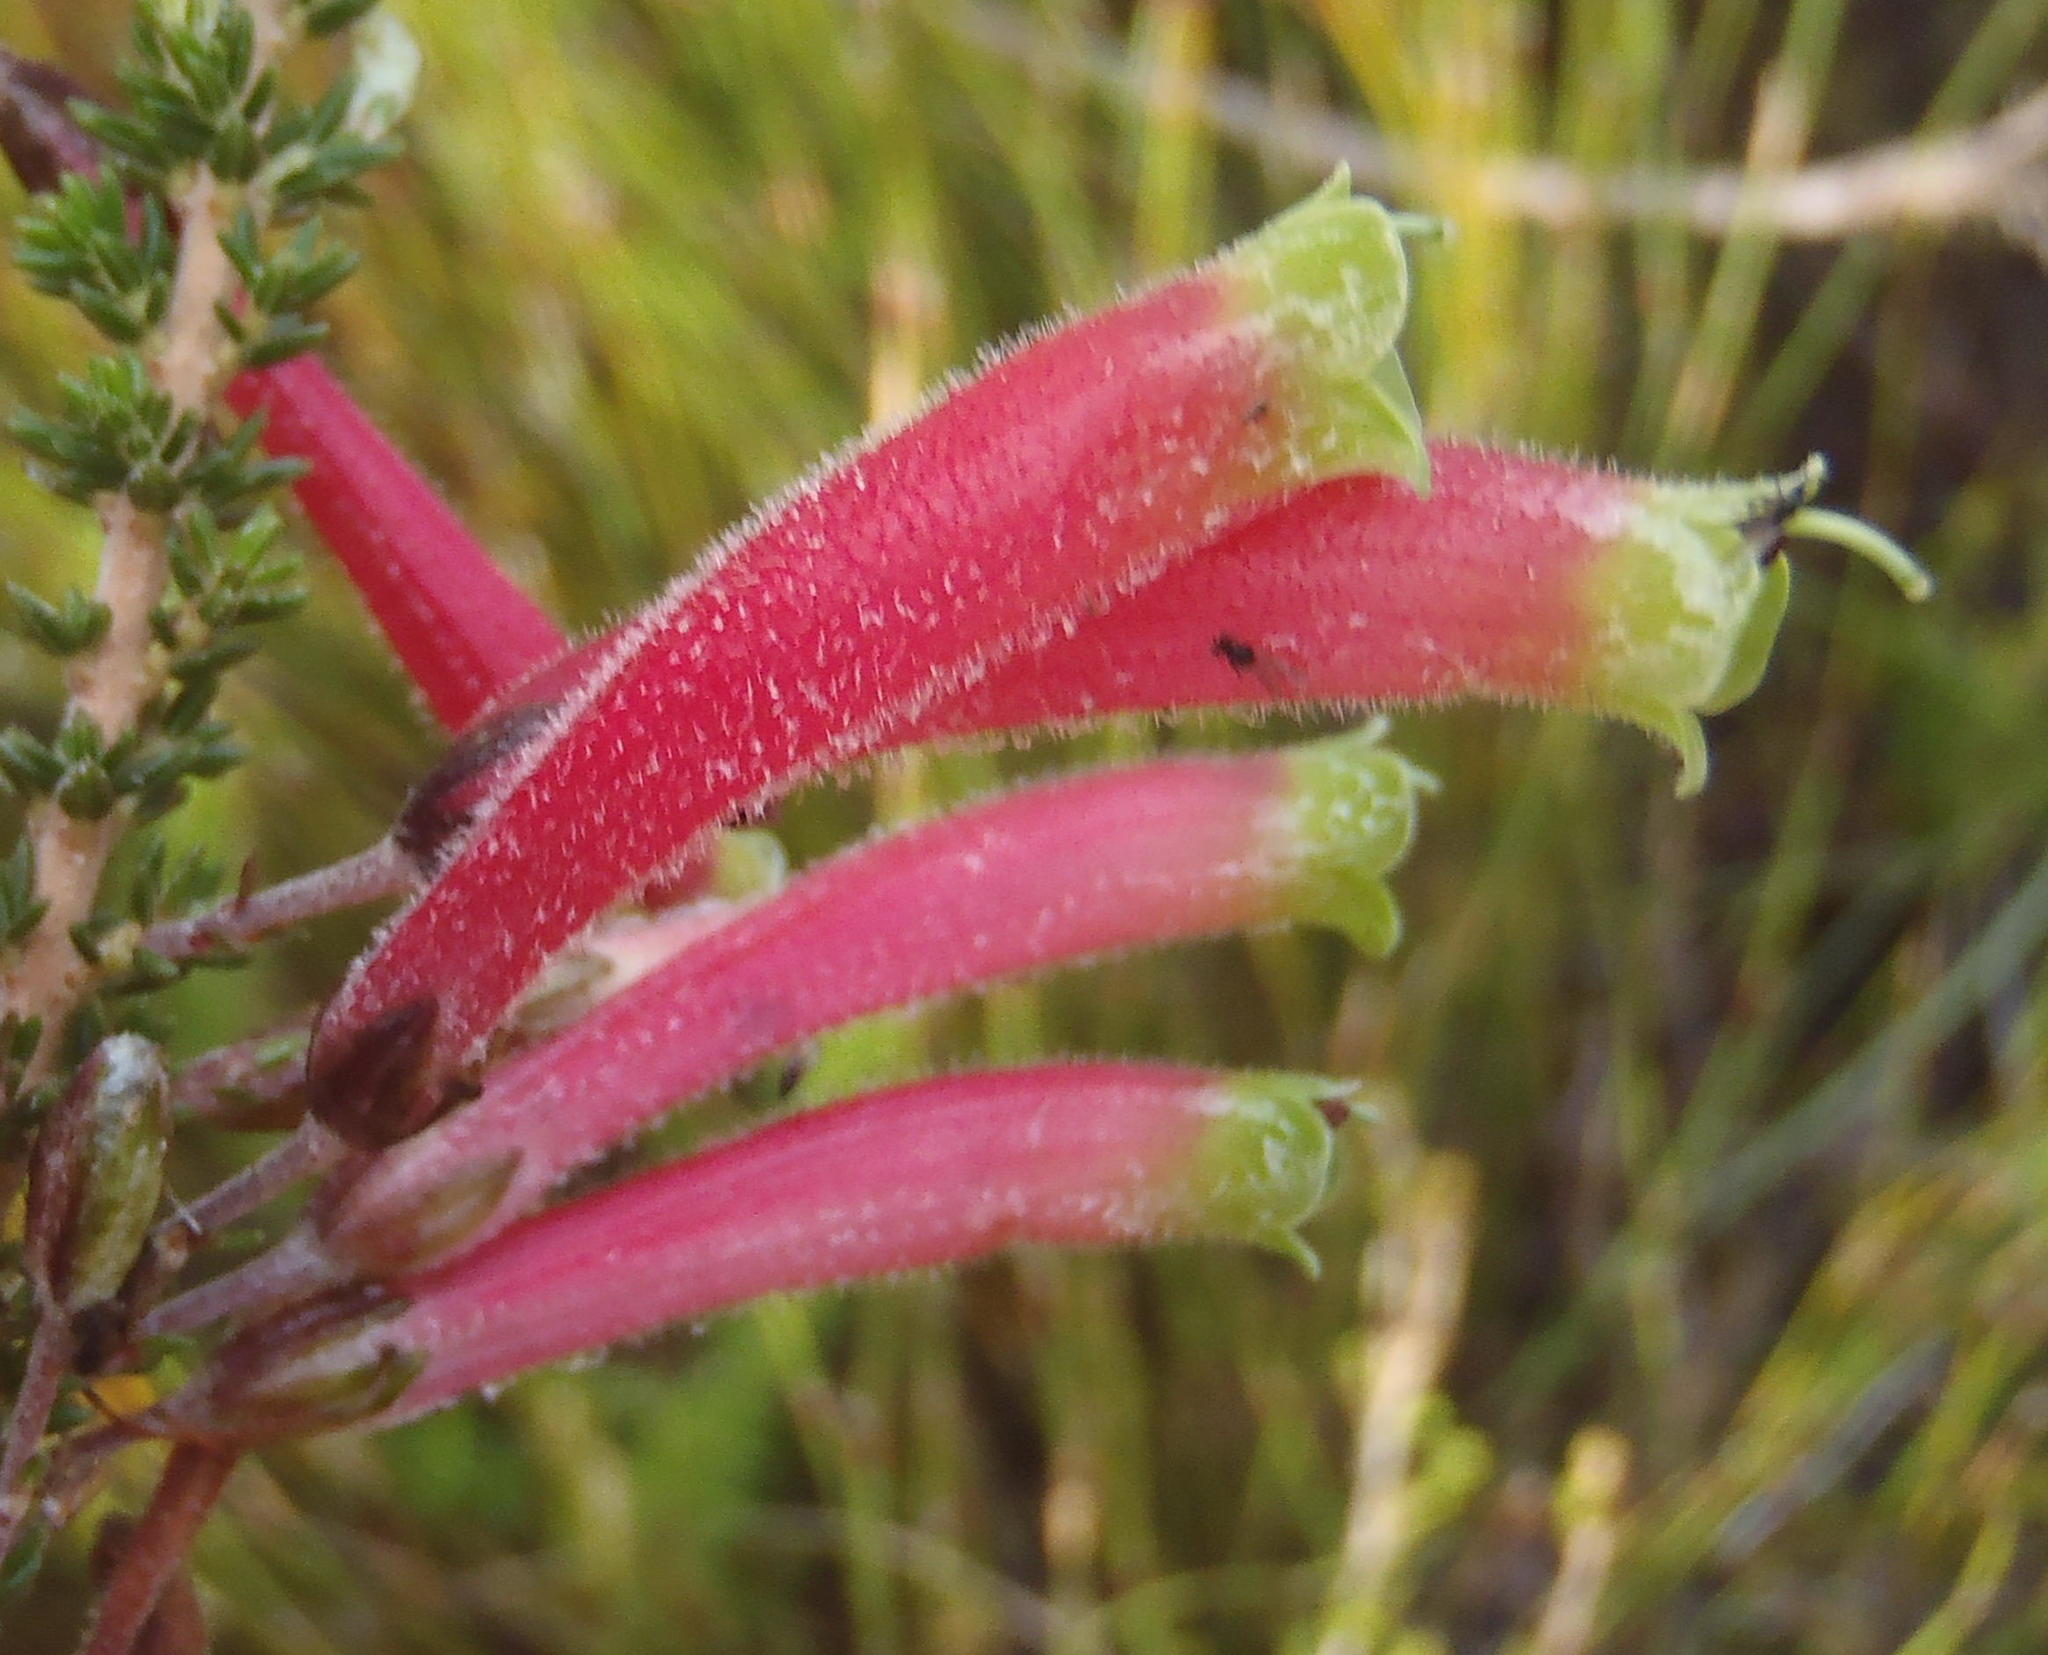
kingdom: Plantae
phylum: Tracheophyta
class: Magnoliopsida
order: Ericales
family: Ericaceae
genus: Erica
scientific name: Erica densifolia
